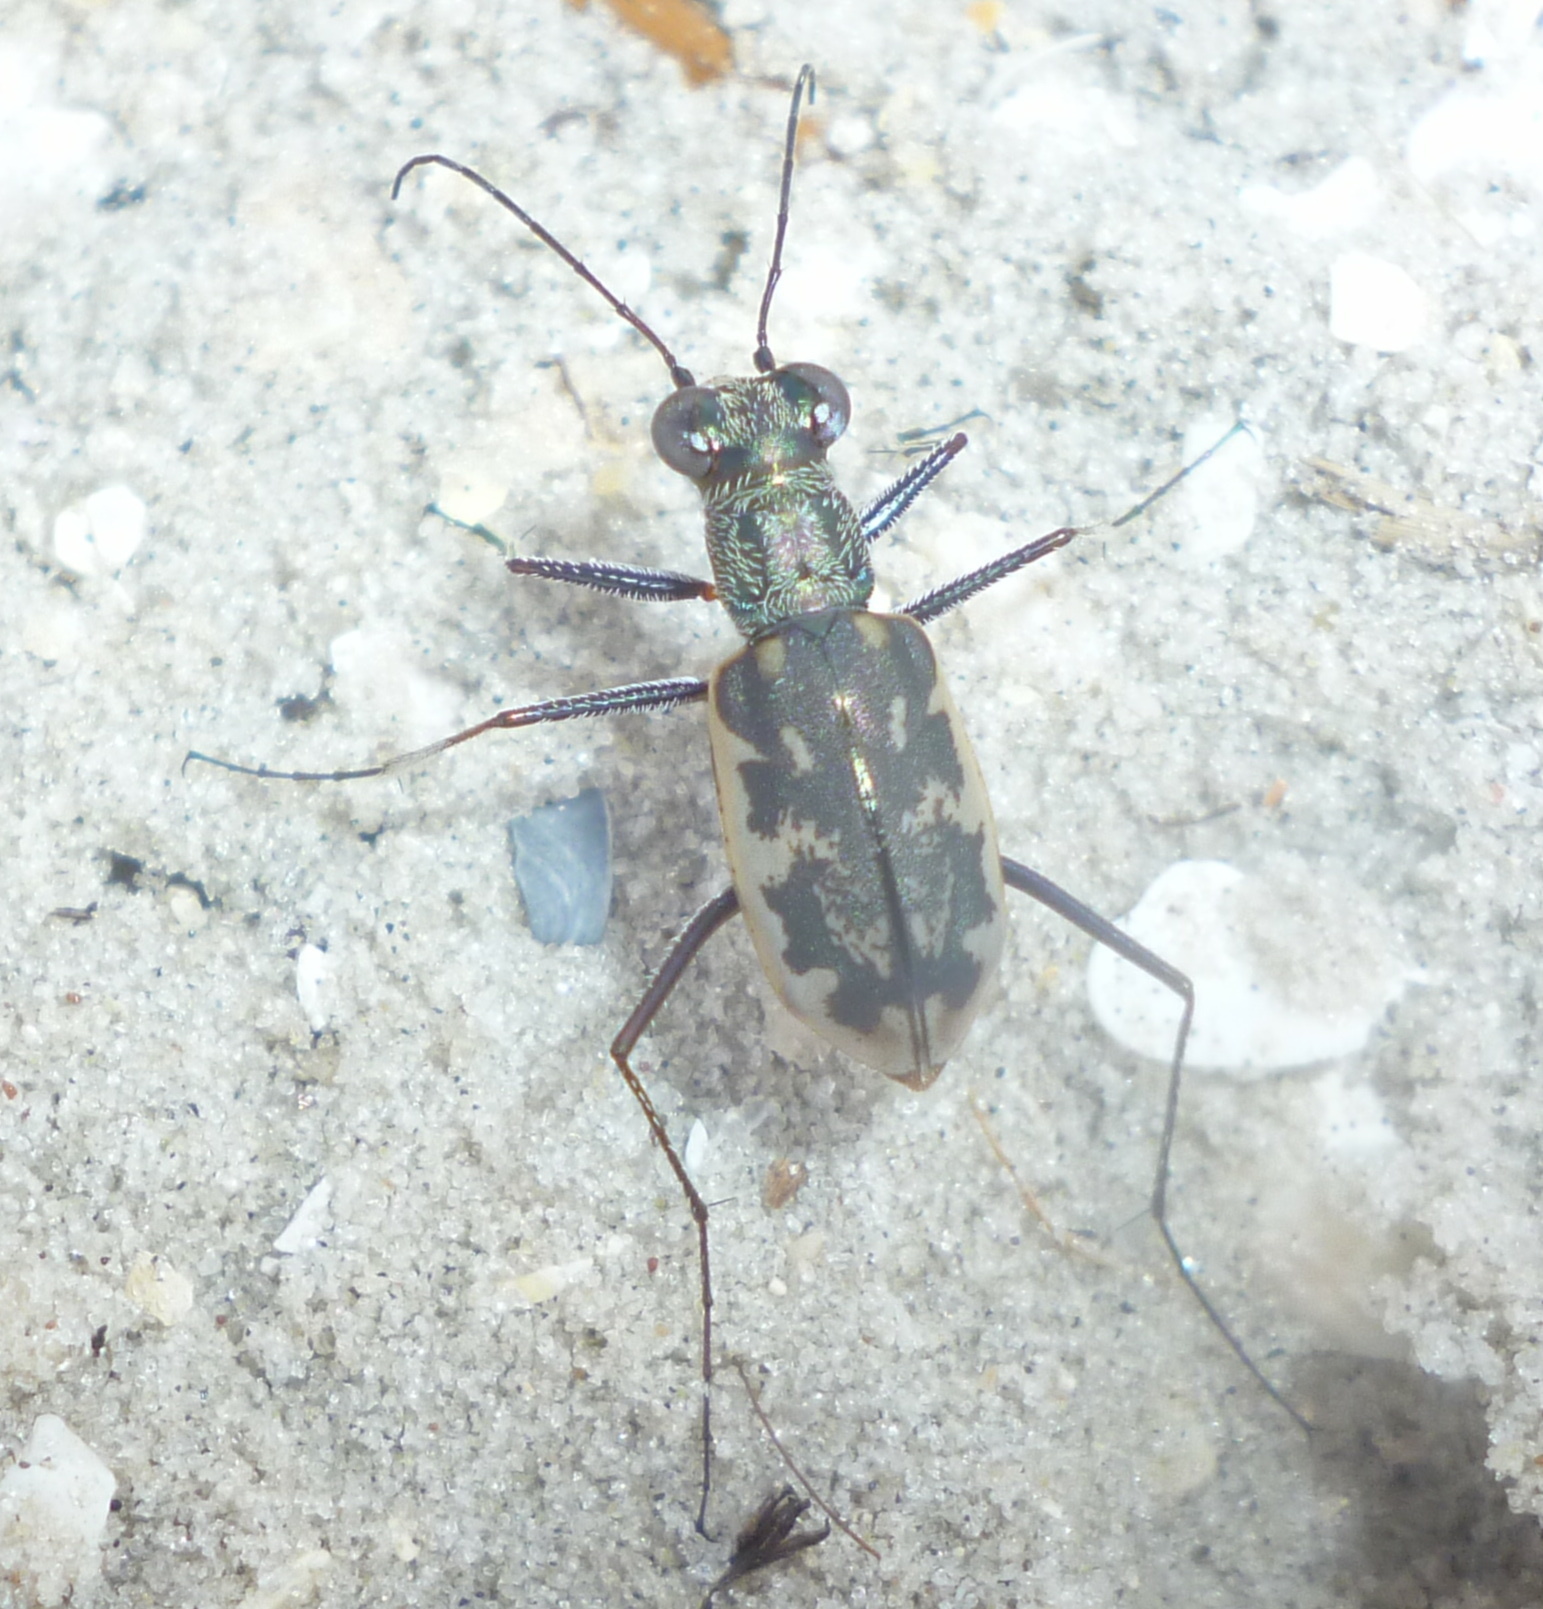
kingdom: Animalia
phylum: Arthropoda
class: Insecta
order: Coleoptera
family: Carabidae
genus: Ellipsoptera
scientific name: Ellipsoptera marginata
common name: Margined tiger beetle
